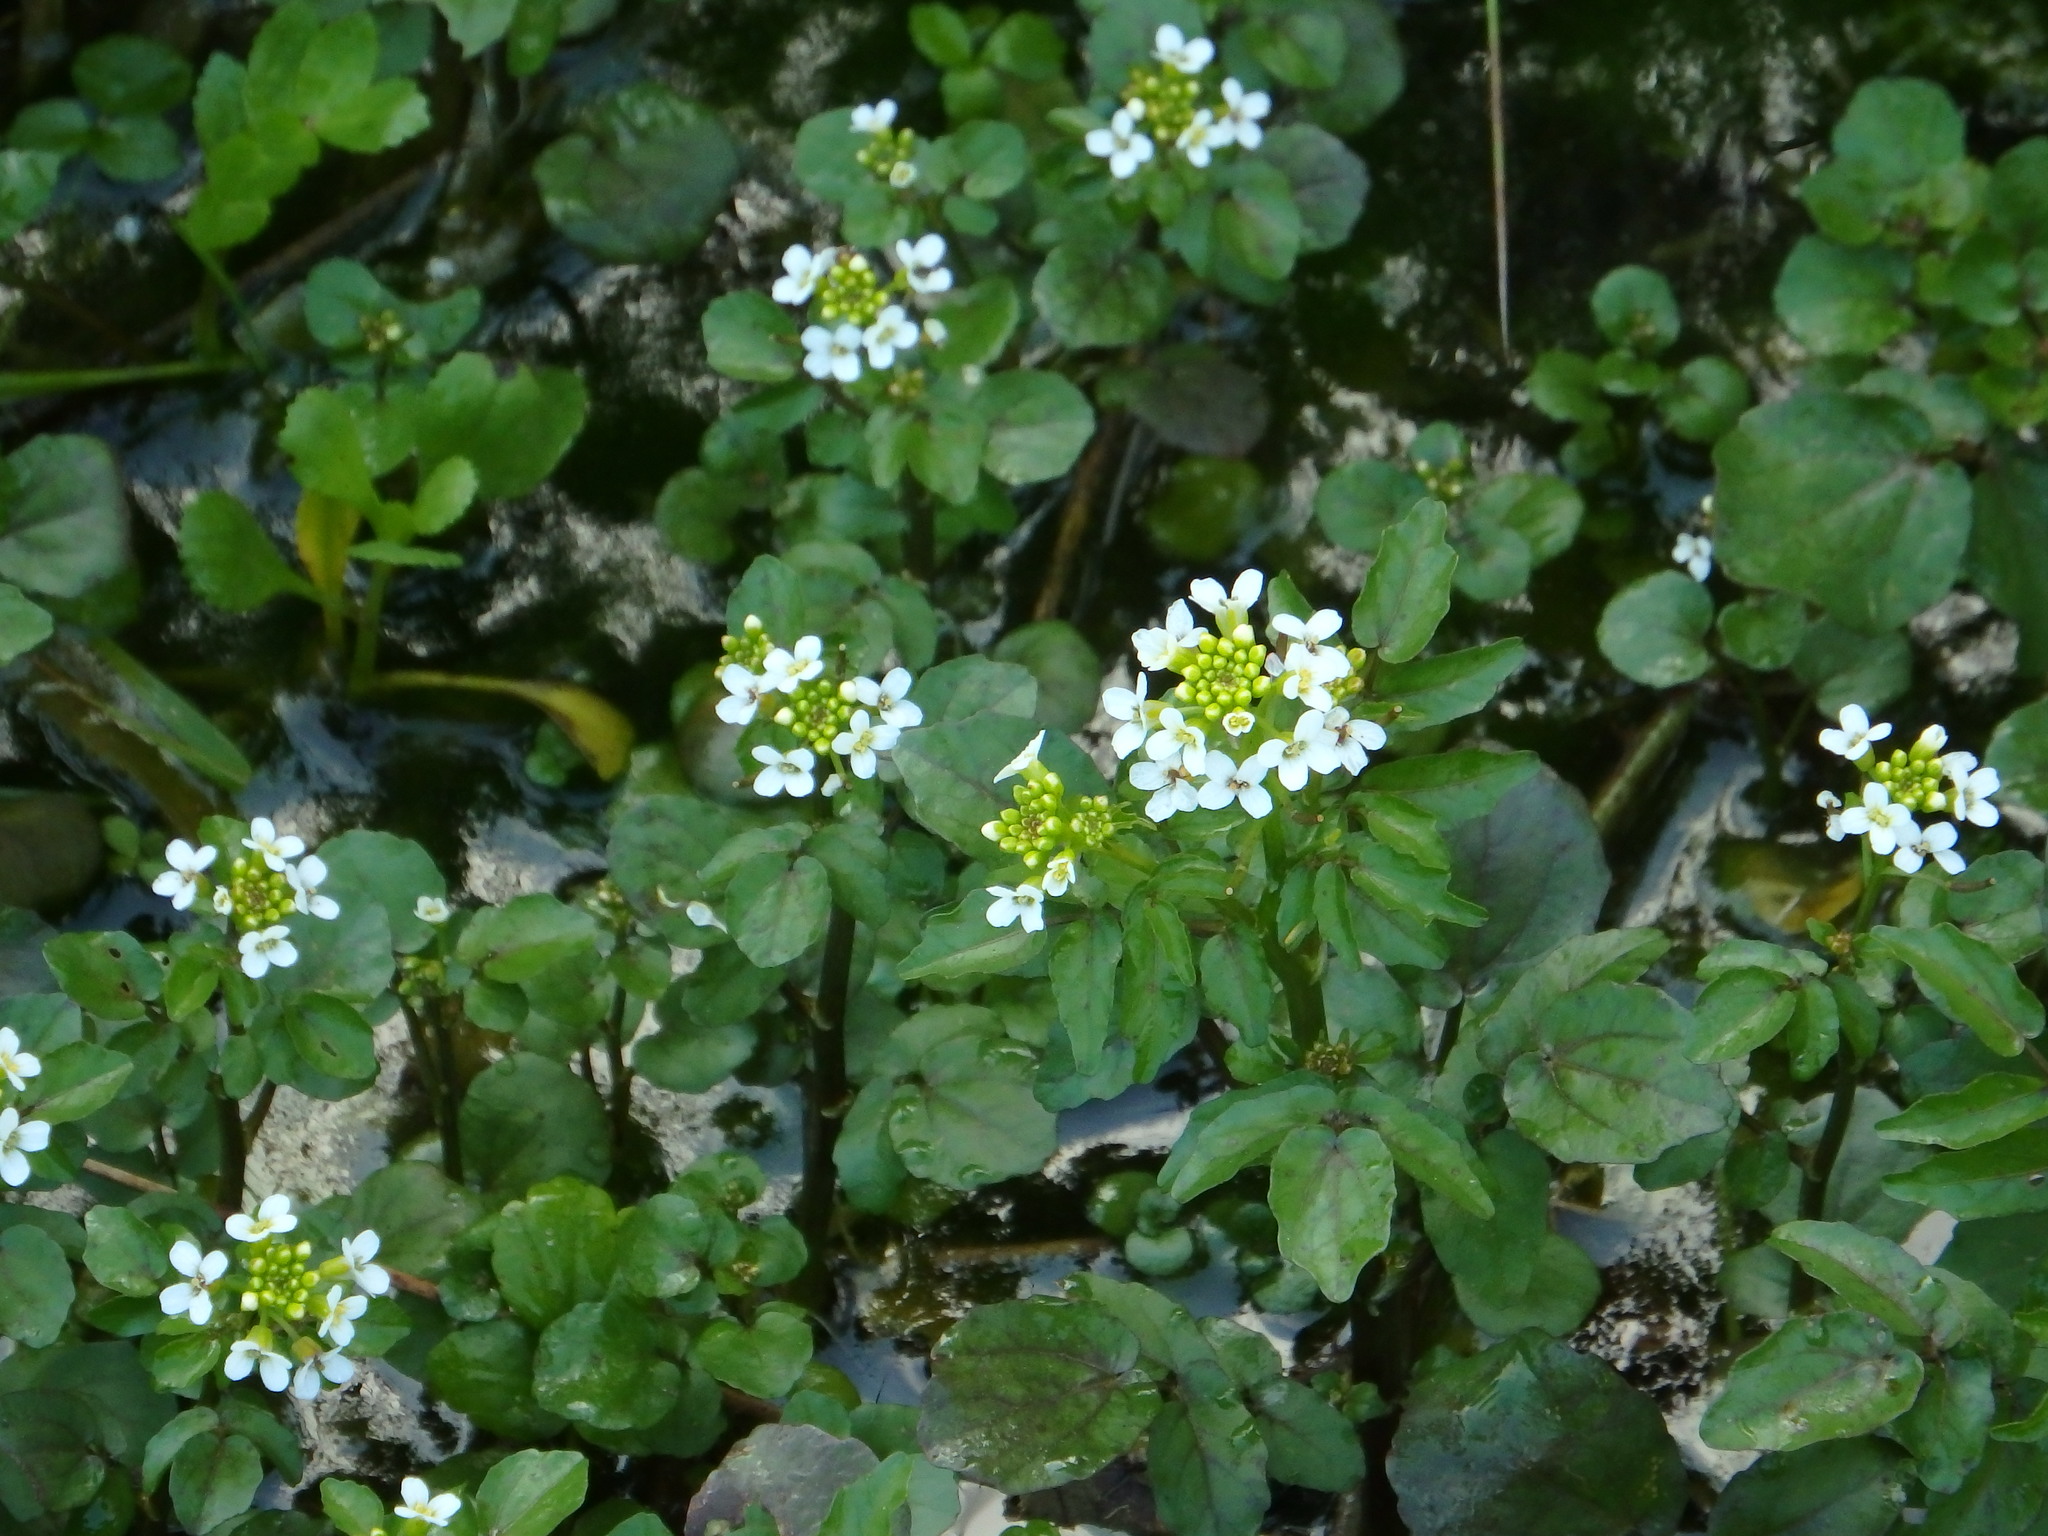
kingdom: Plantae
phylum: Tracheophyta
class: Magnoliopsida
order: Brassicales
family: Brassicaceae
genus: Nasturtium
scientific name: Nasturtium officinale
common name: Watercress
